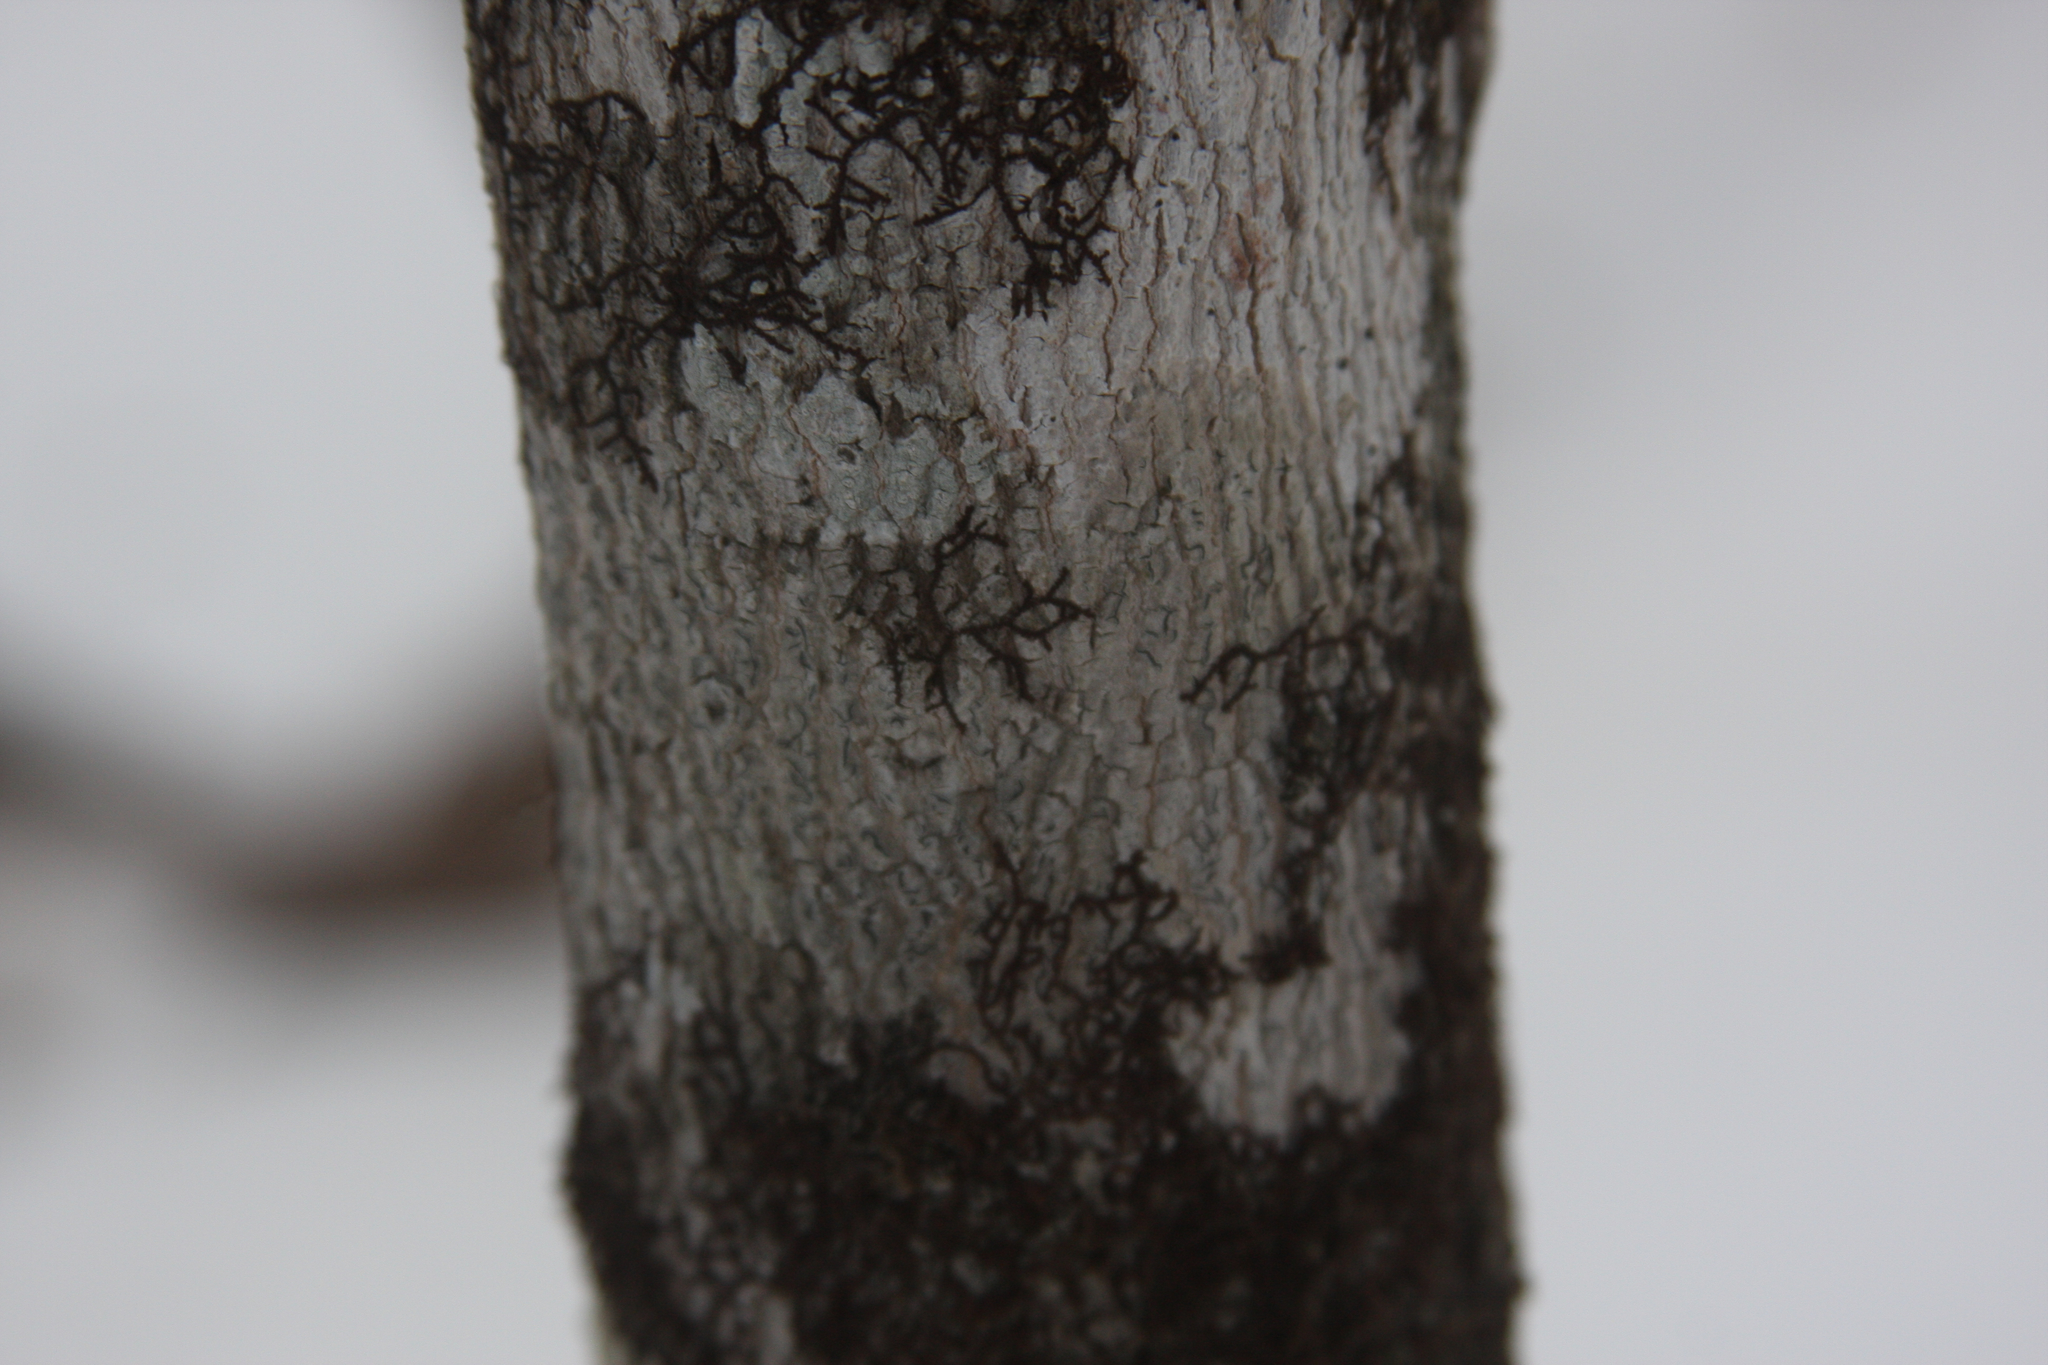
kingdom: Plantae
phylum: Marchantiophyta
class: Jungermanniopsida
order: Porellales
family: Frullaniaceae
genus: Frullania
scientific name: Frullania eboracensis
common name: New york scalewort
